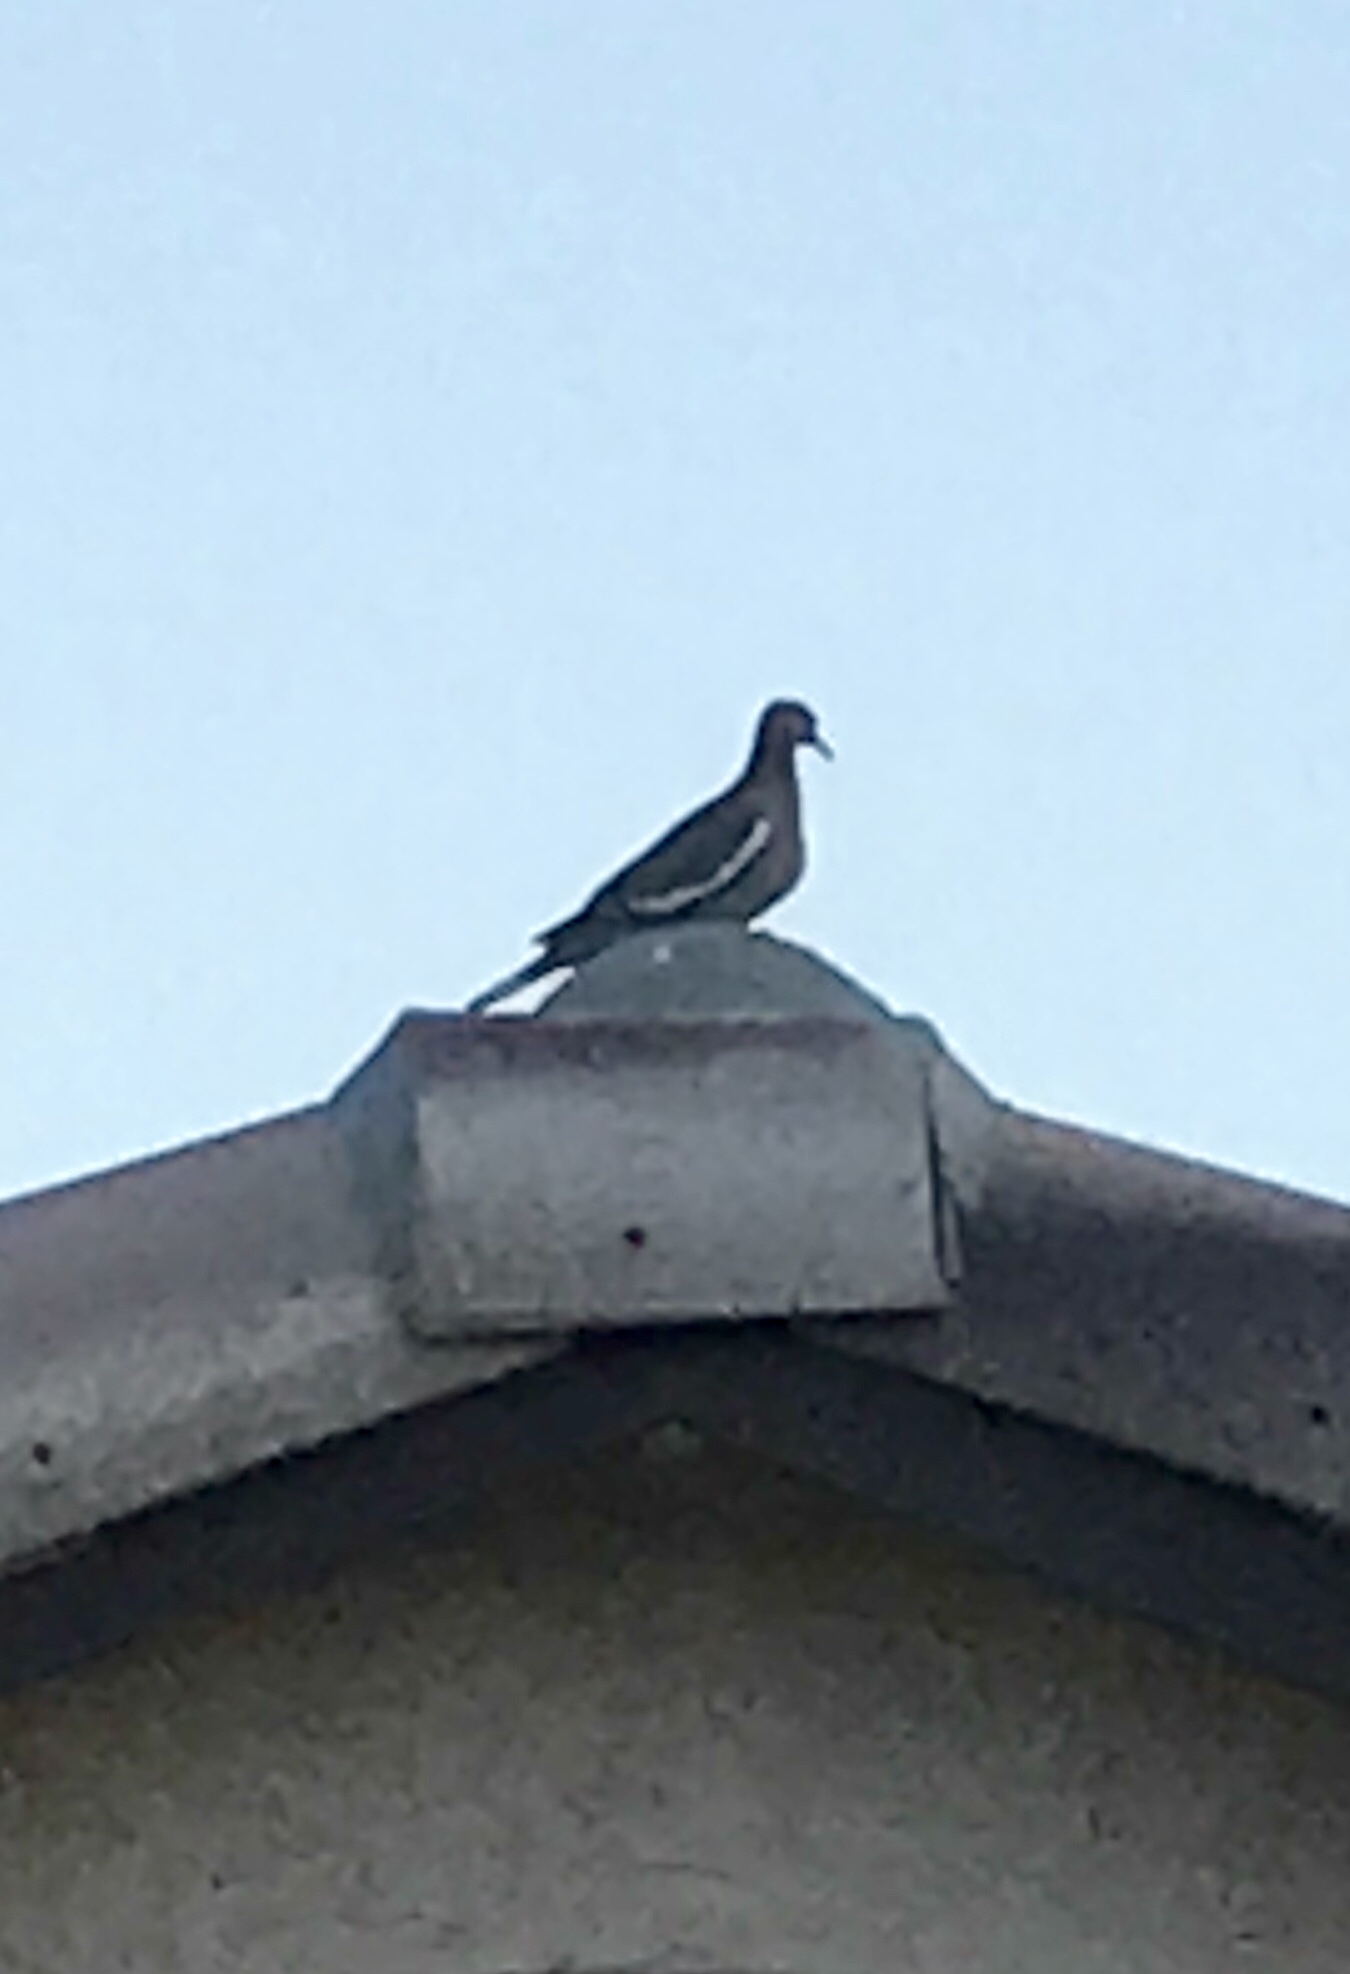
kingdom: Animalia
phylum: Chordata
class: Aves
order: Columbiformes
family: Columbidae
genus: Zenaida
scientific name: Zenaida asiatica
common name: White-winged dove
